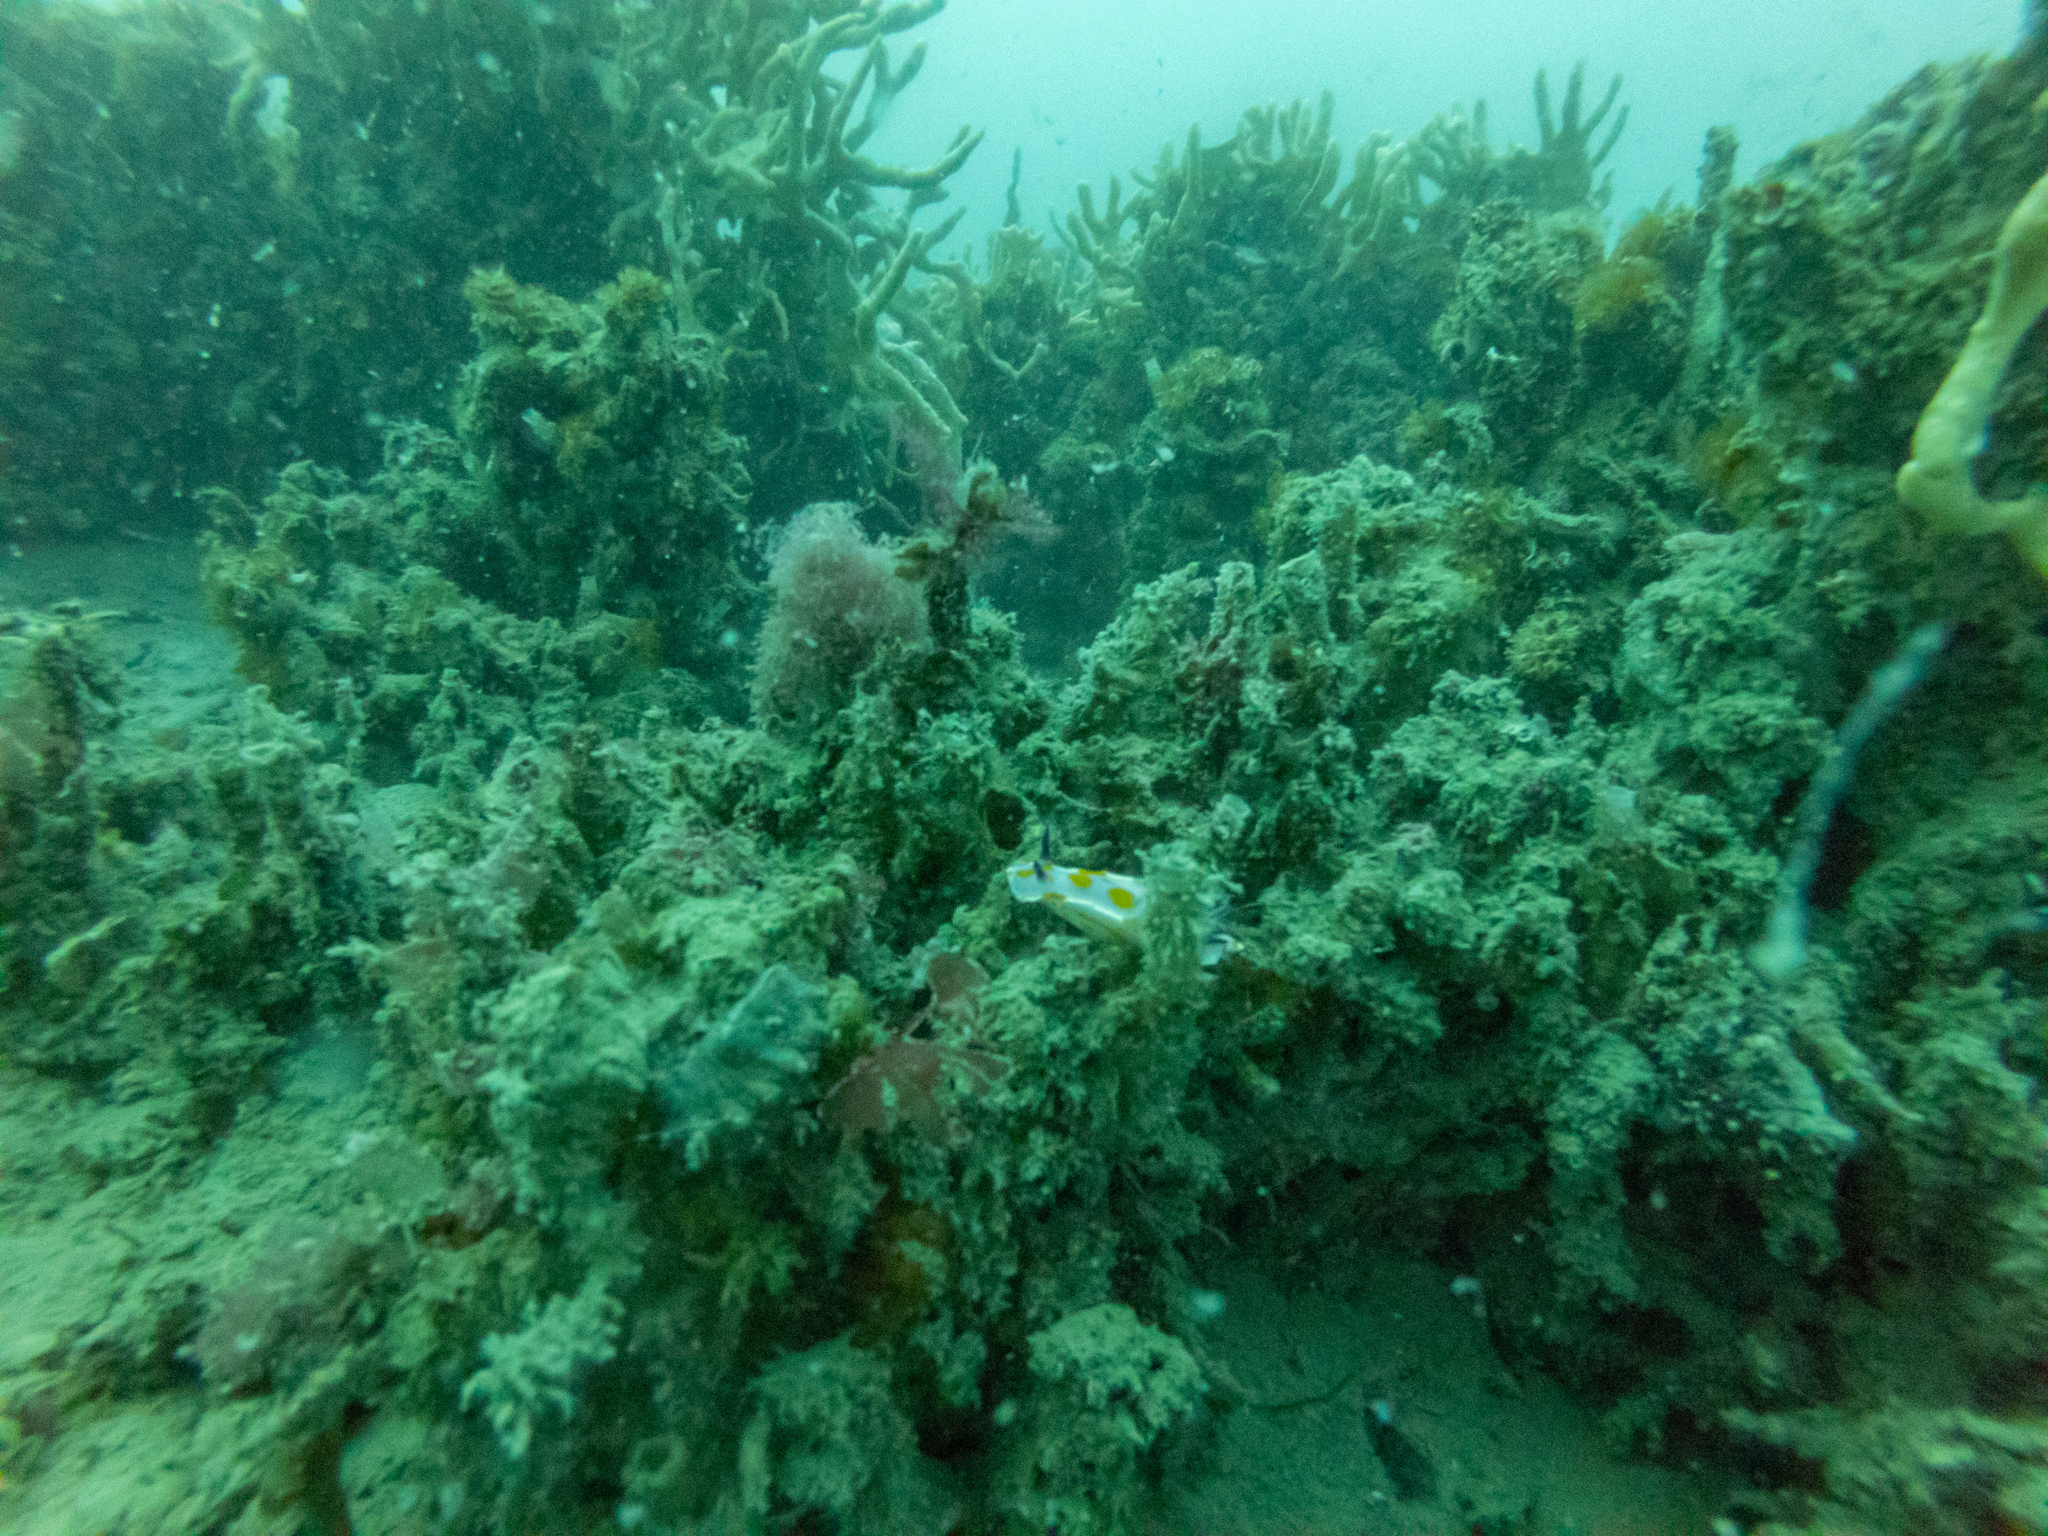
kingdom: Animalia
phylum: Mollusca
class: Gastropoda
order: Nudibranchia
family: Chromodorididae
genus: Ceratosoma
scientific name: Ceratosoma amoenum
